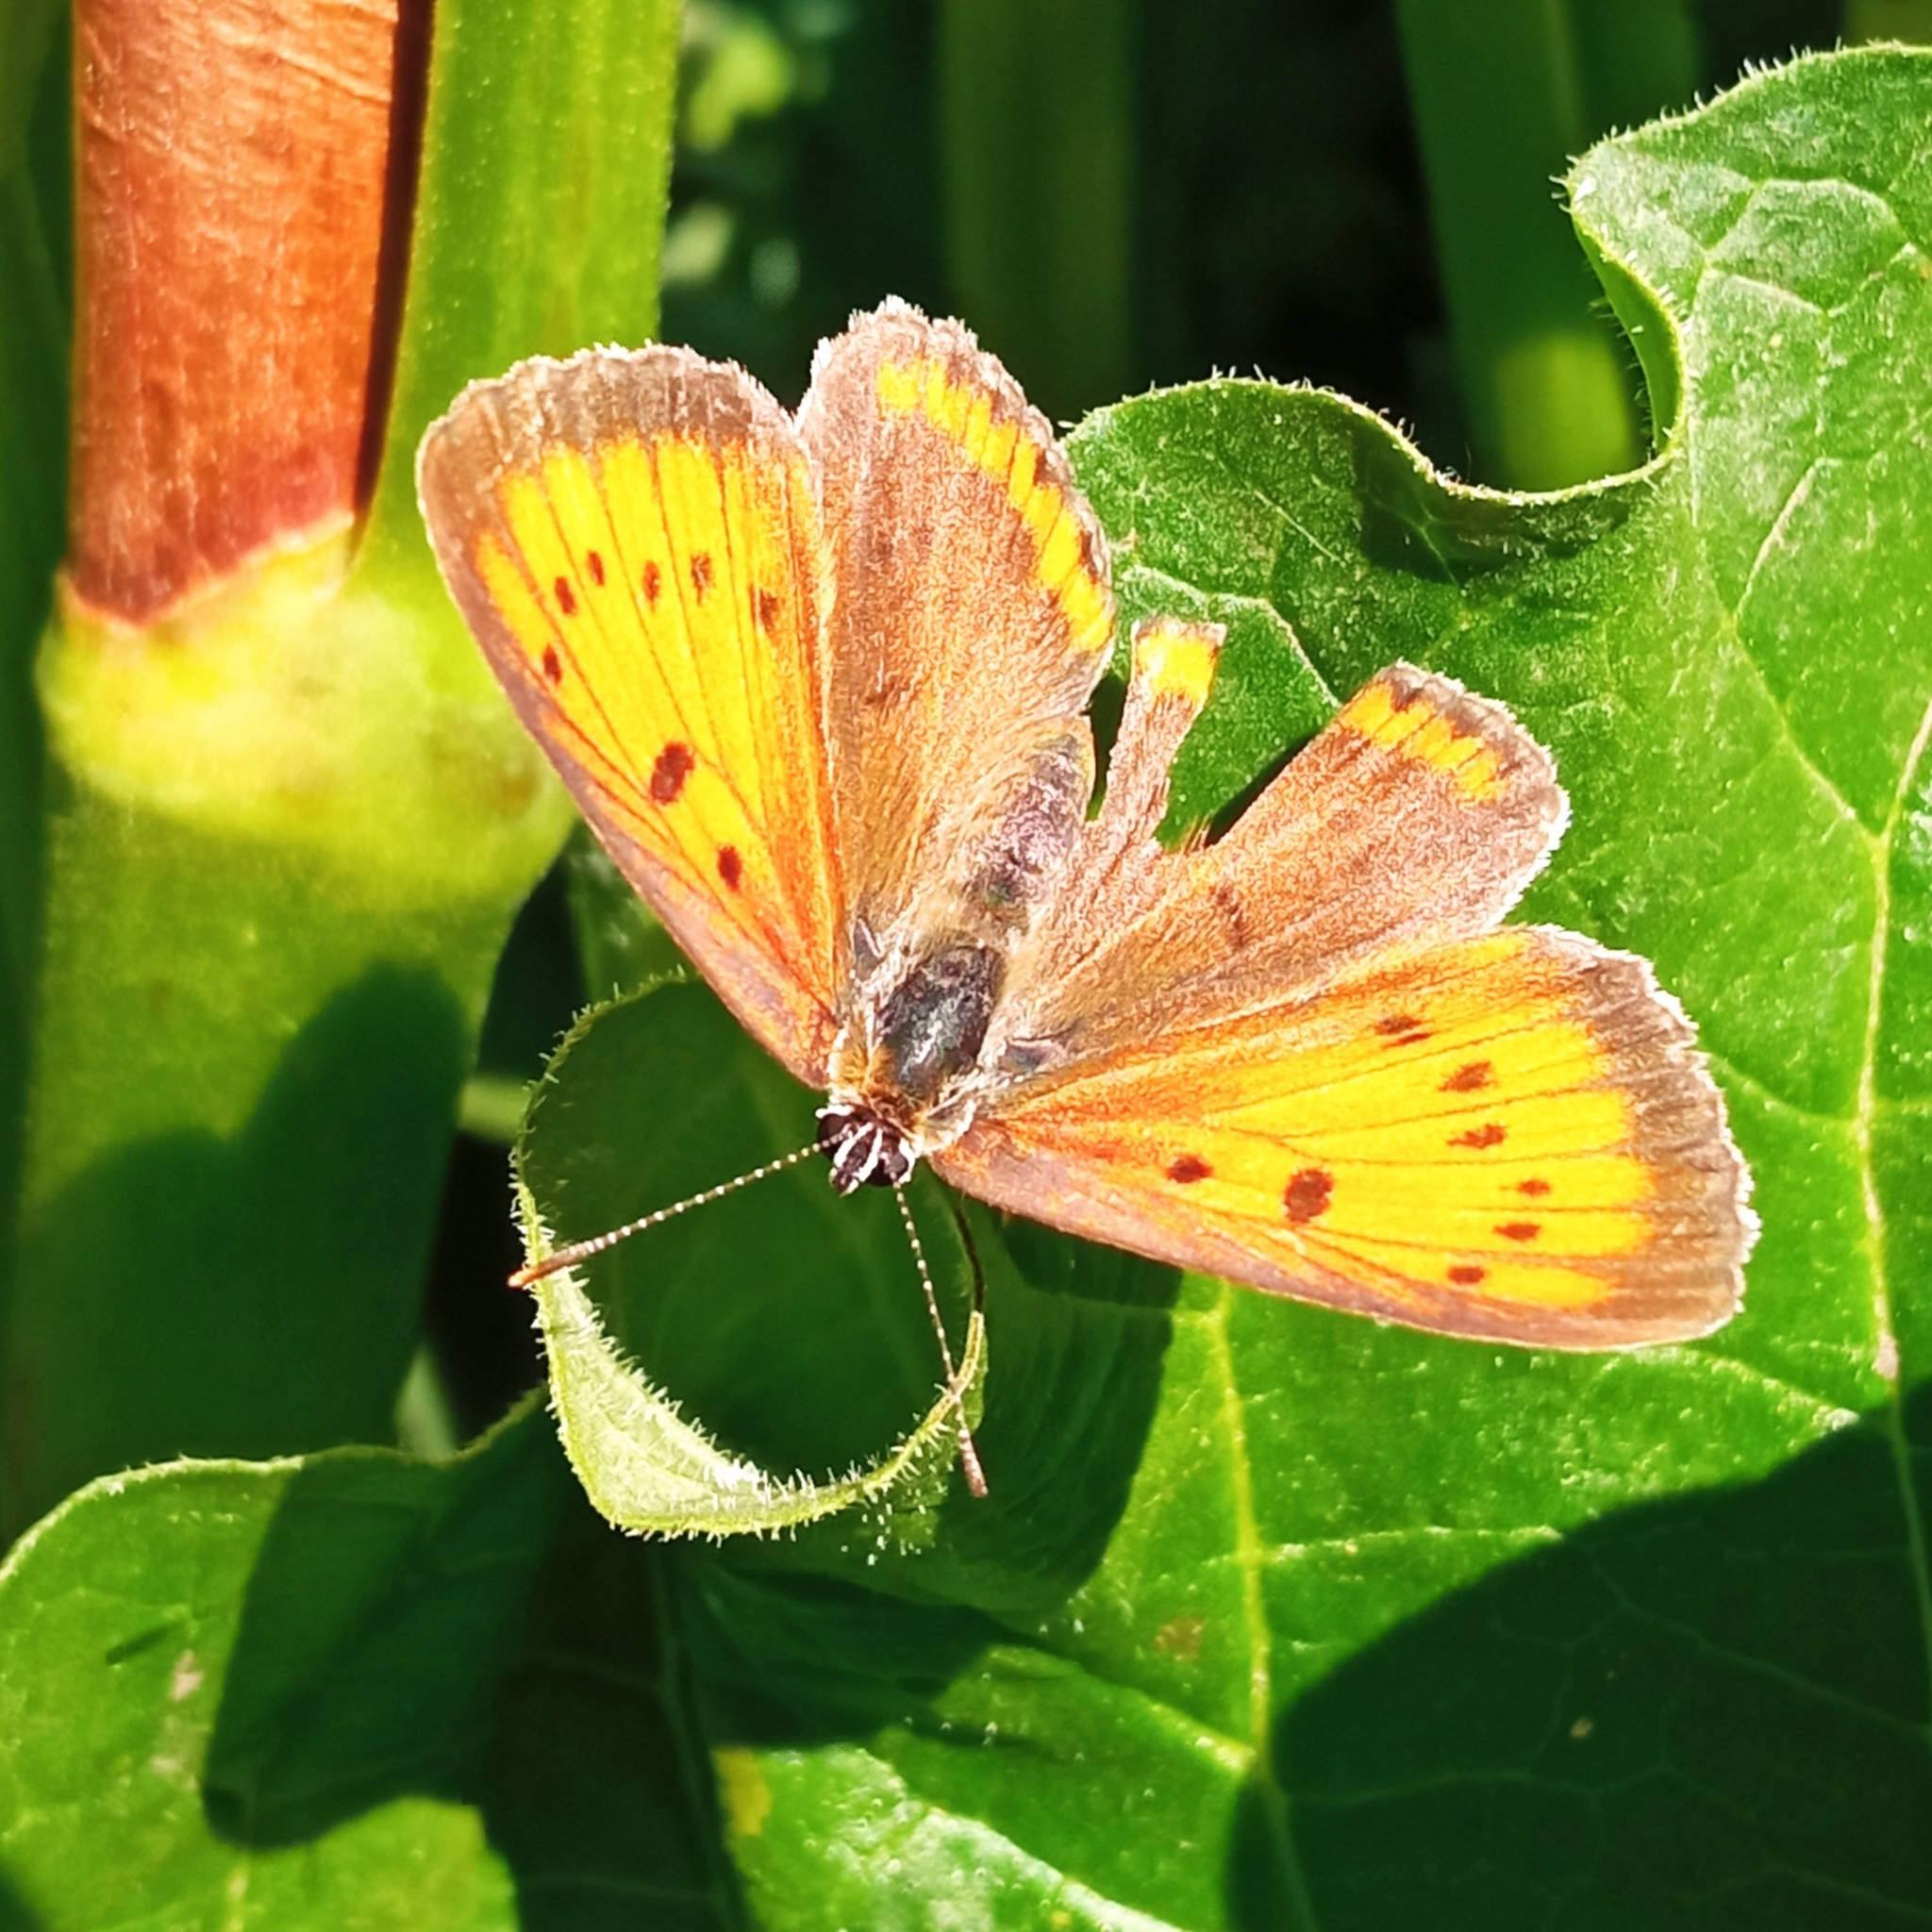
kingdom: Animalia
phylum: Arthropoda
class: Insecta
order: Lepidoptera
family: Lycaenidae
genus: Lycaena
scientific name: Lycaena dispar
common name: Large copper
